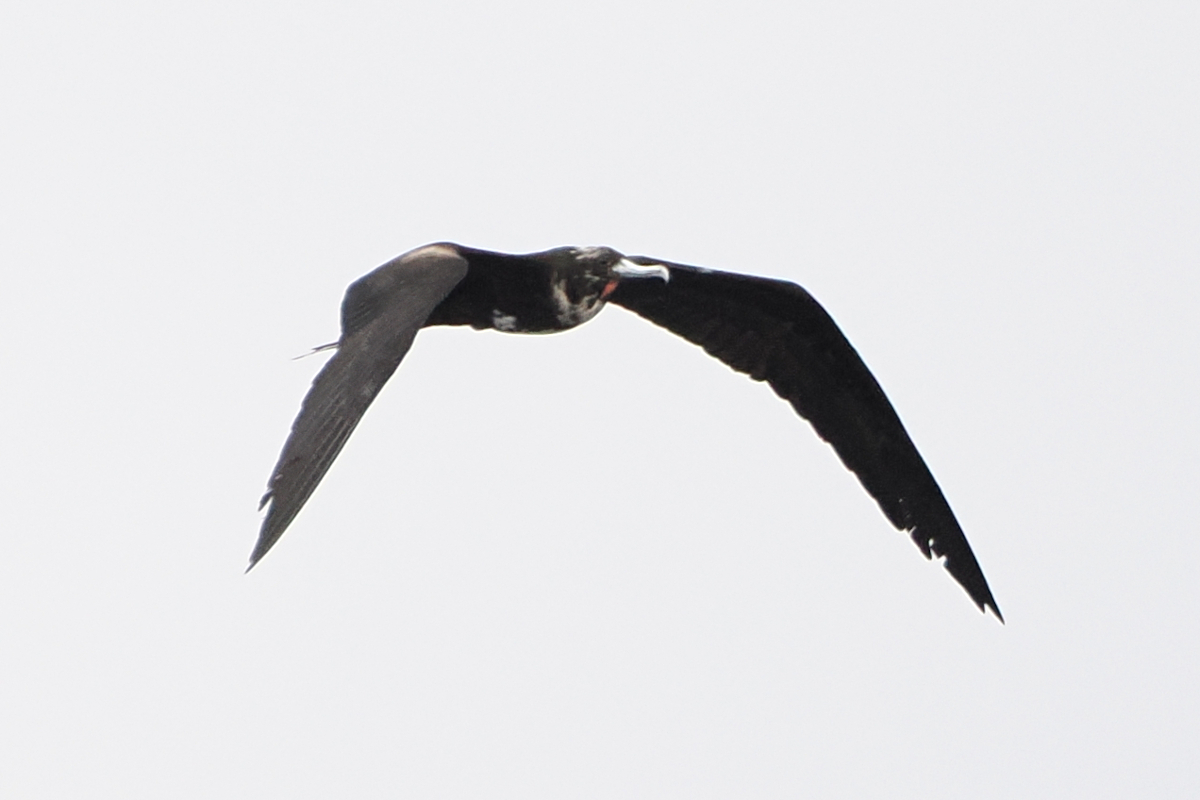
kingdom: Animalia
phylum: Chordata
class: Aves
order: Suliformes
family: Fregatidae
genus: Fregata
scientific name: Fregata magnificens
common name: Magnificent frigatebird
